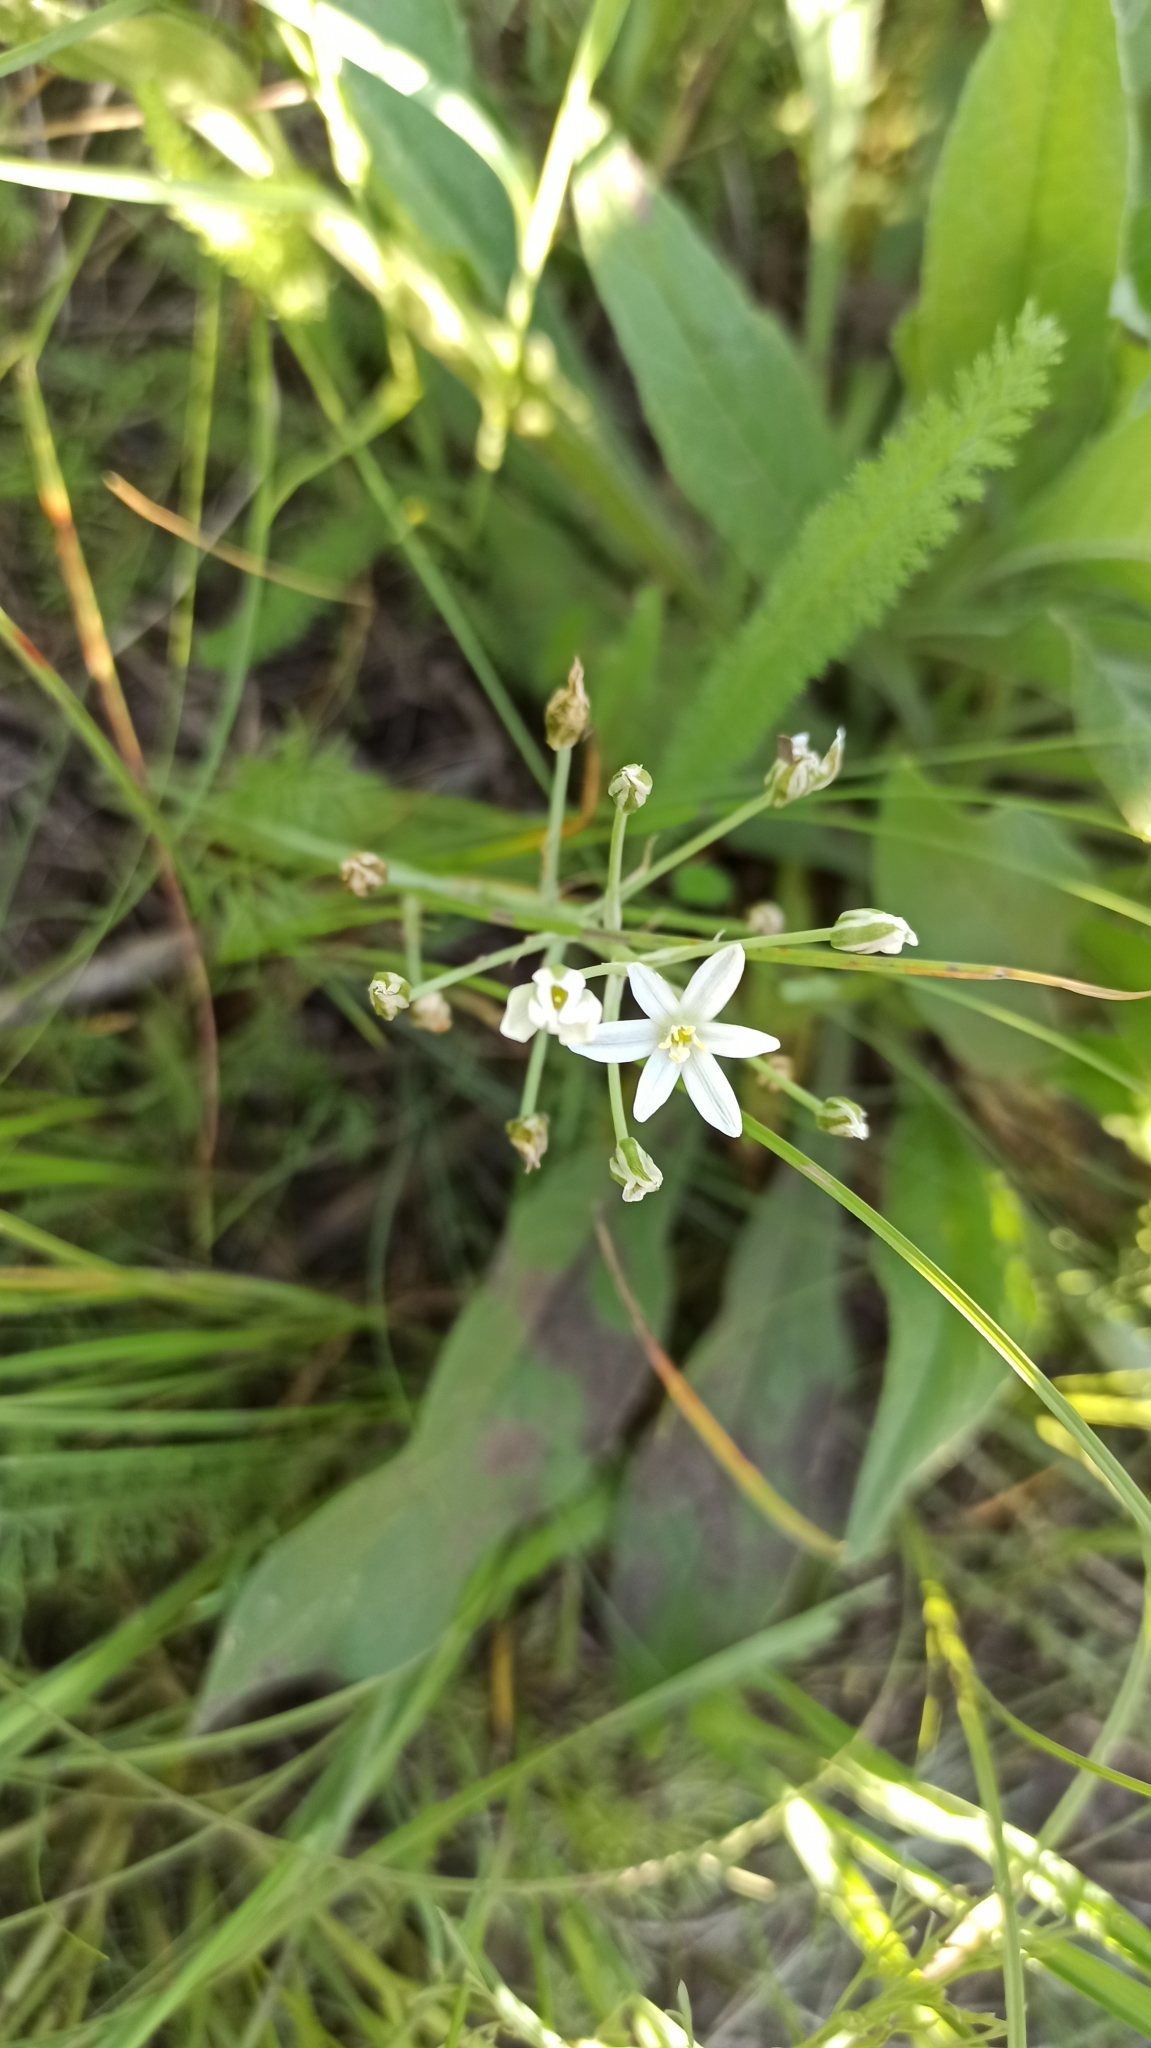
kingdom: Plantae
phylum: Tracheophyta
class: Liliopsida
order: Asparagales
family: Asparagaceae
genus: Ornithogalum
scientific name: Ornithogalum fischerianum
